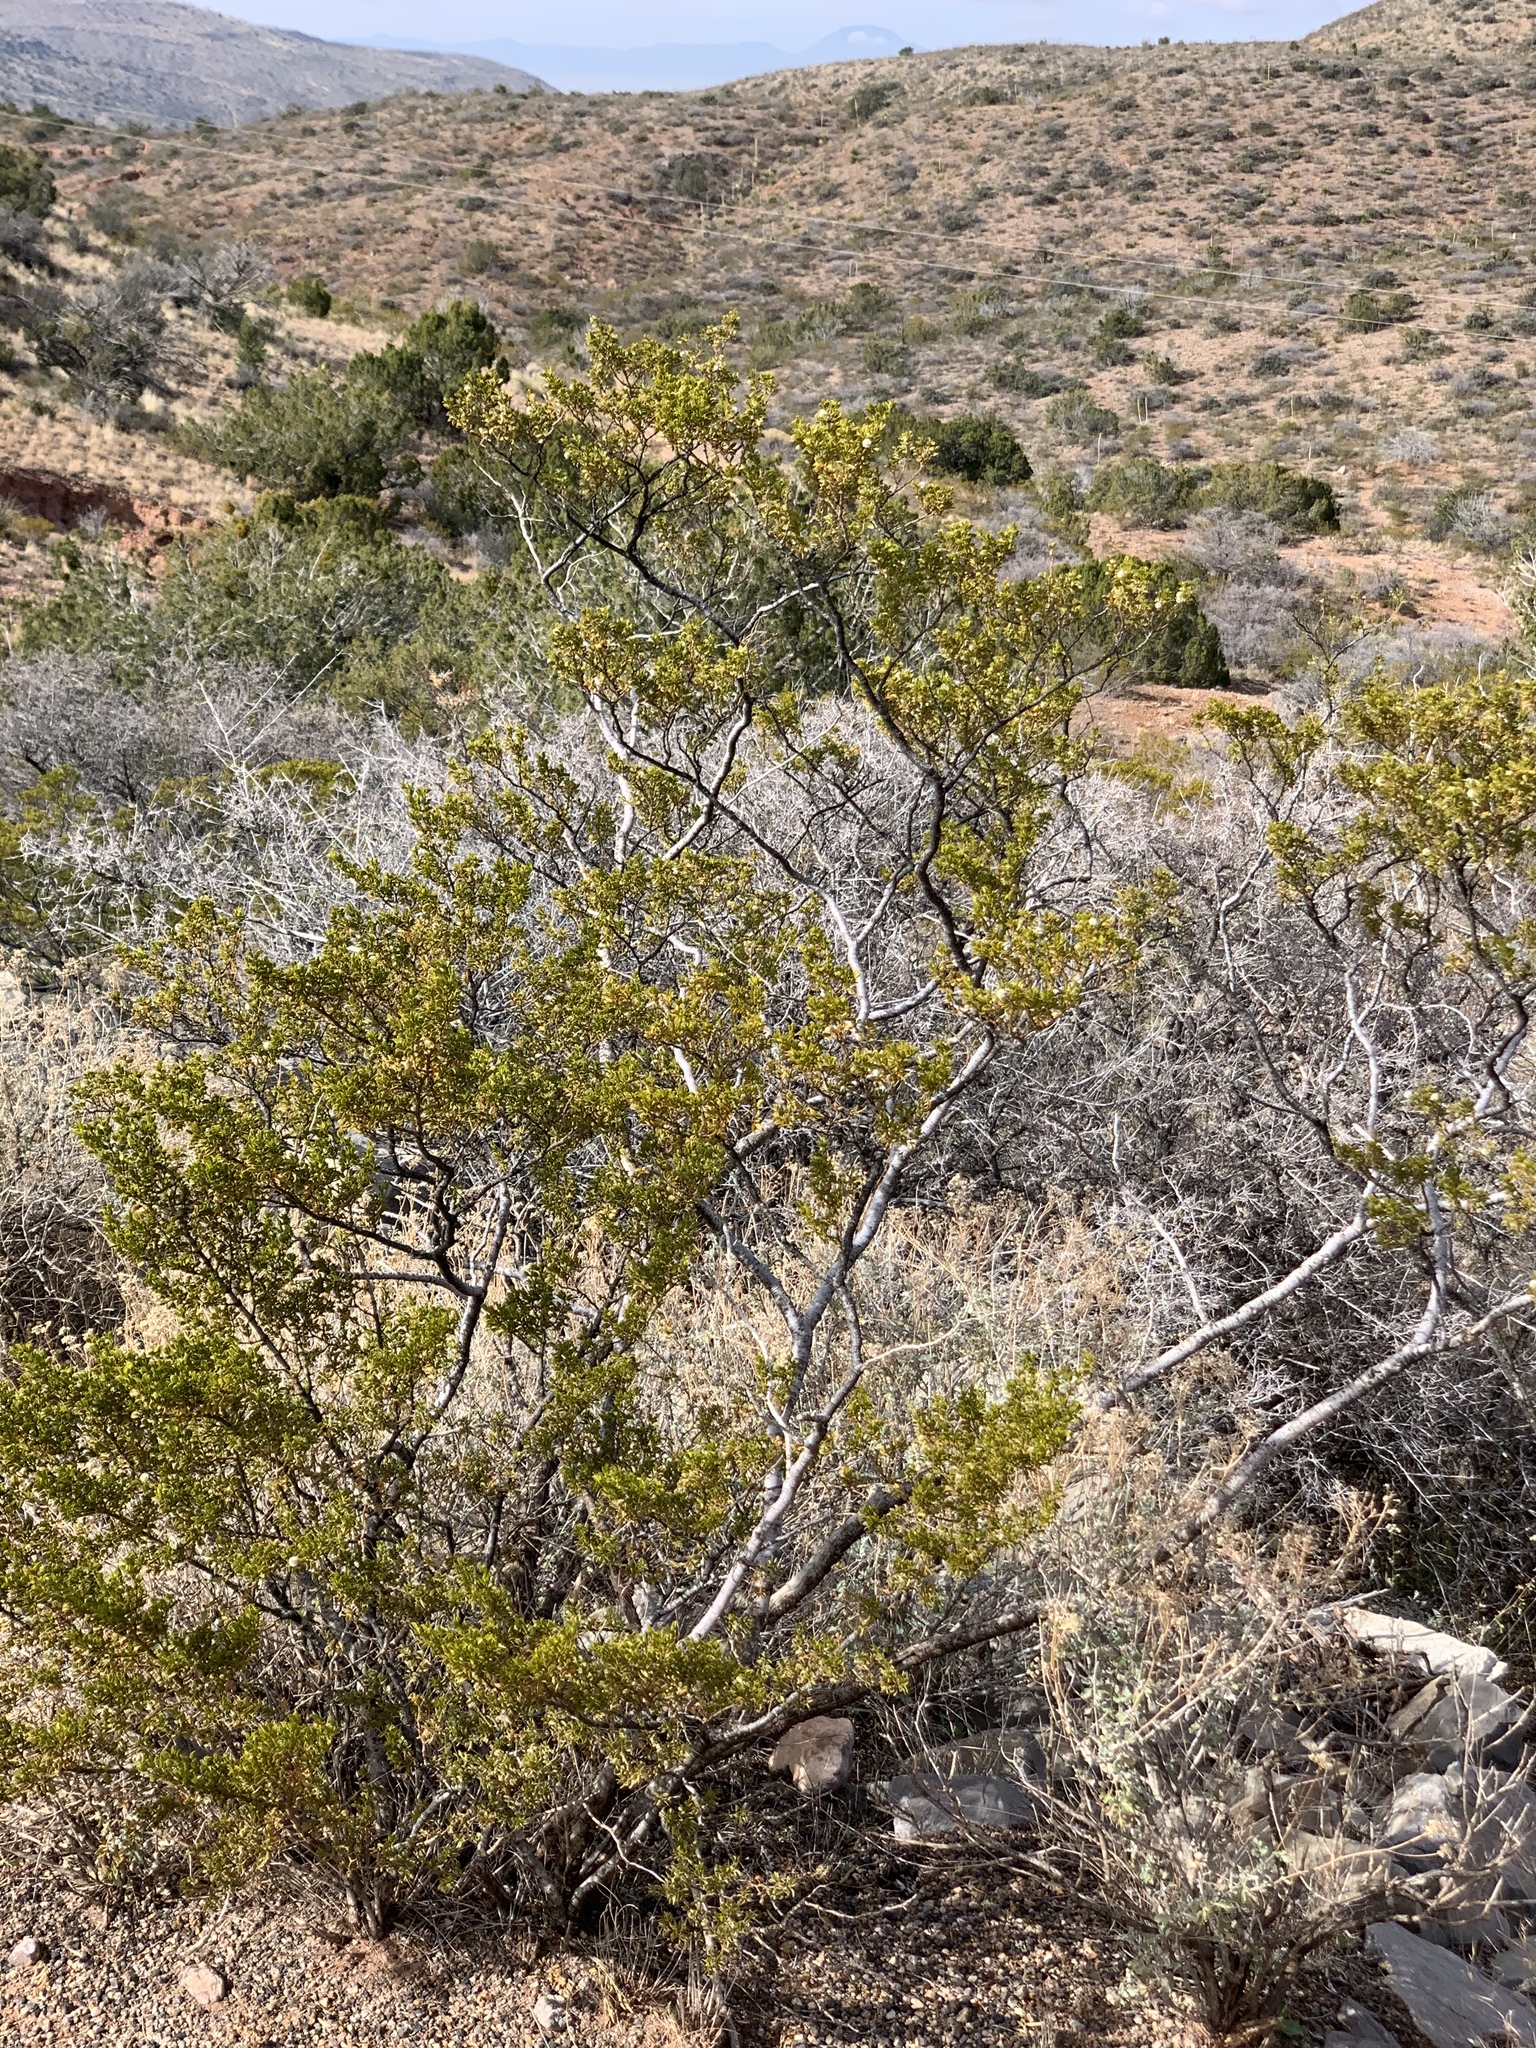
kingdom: Plantae
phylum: Tracheophyta
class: Magnoliopsida
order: Zygophyllales
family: Zygophyllaceae
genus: Larrea
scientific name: Larrea tridentata
